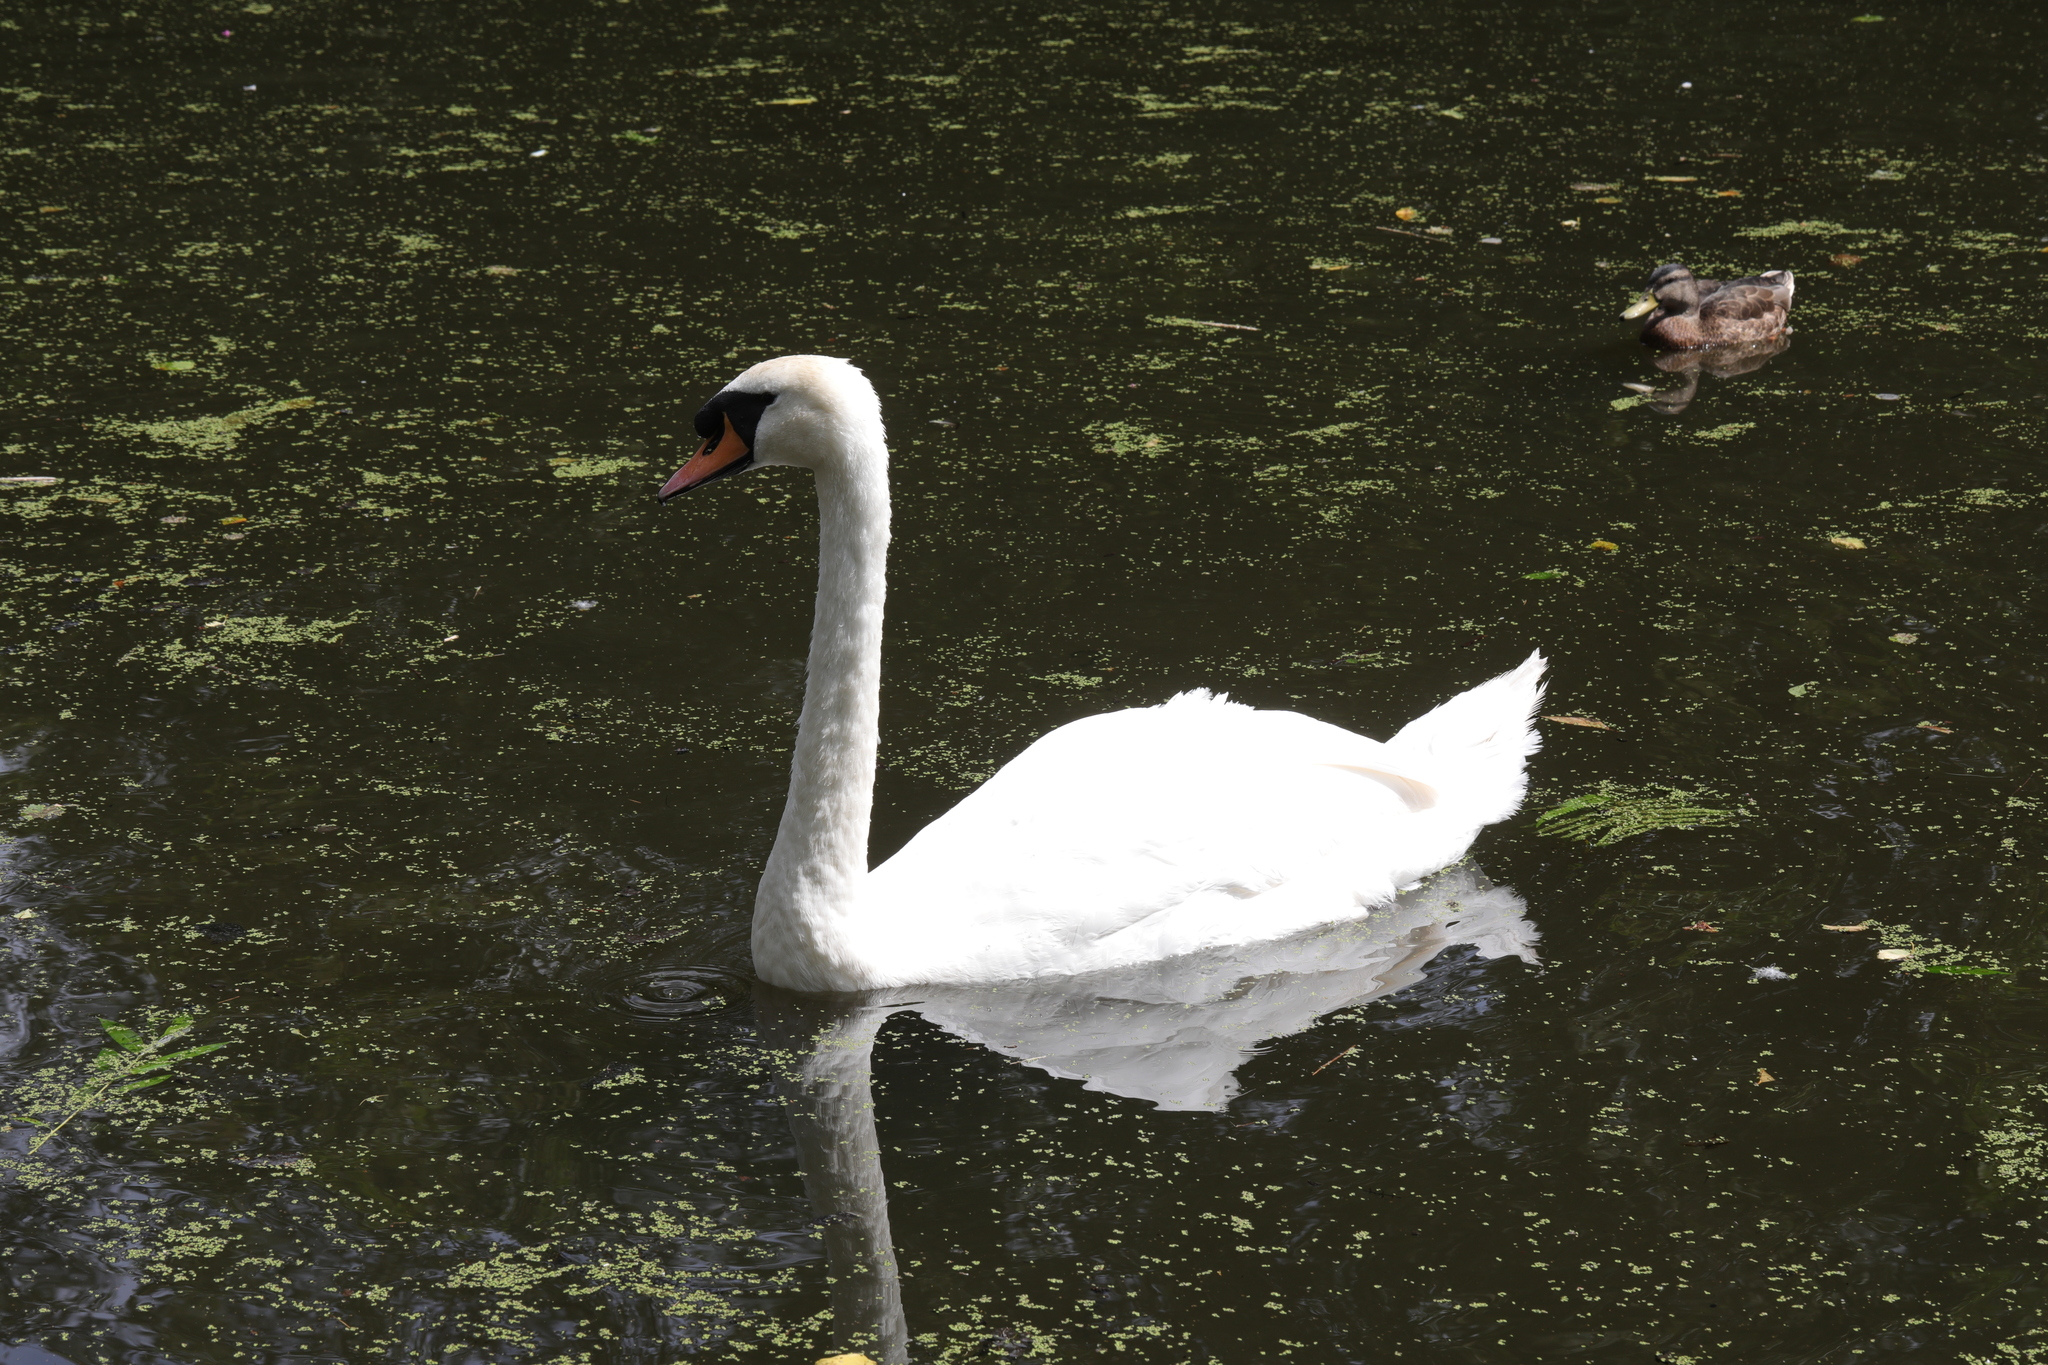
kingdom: Animalia
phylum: Chordata
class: Aves
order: Anseriformes
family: Anatidae
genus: Cygnus
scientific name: Cygnus olor
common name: Mute swan
